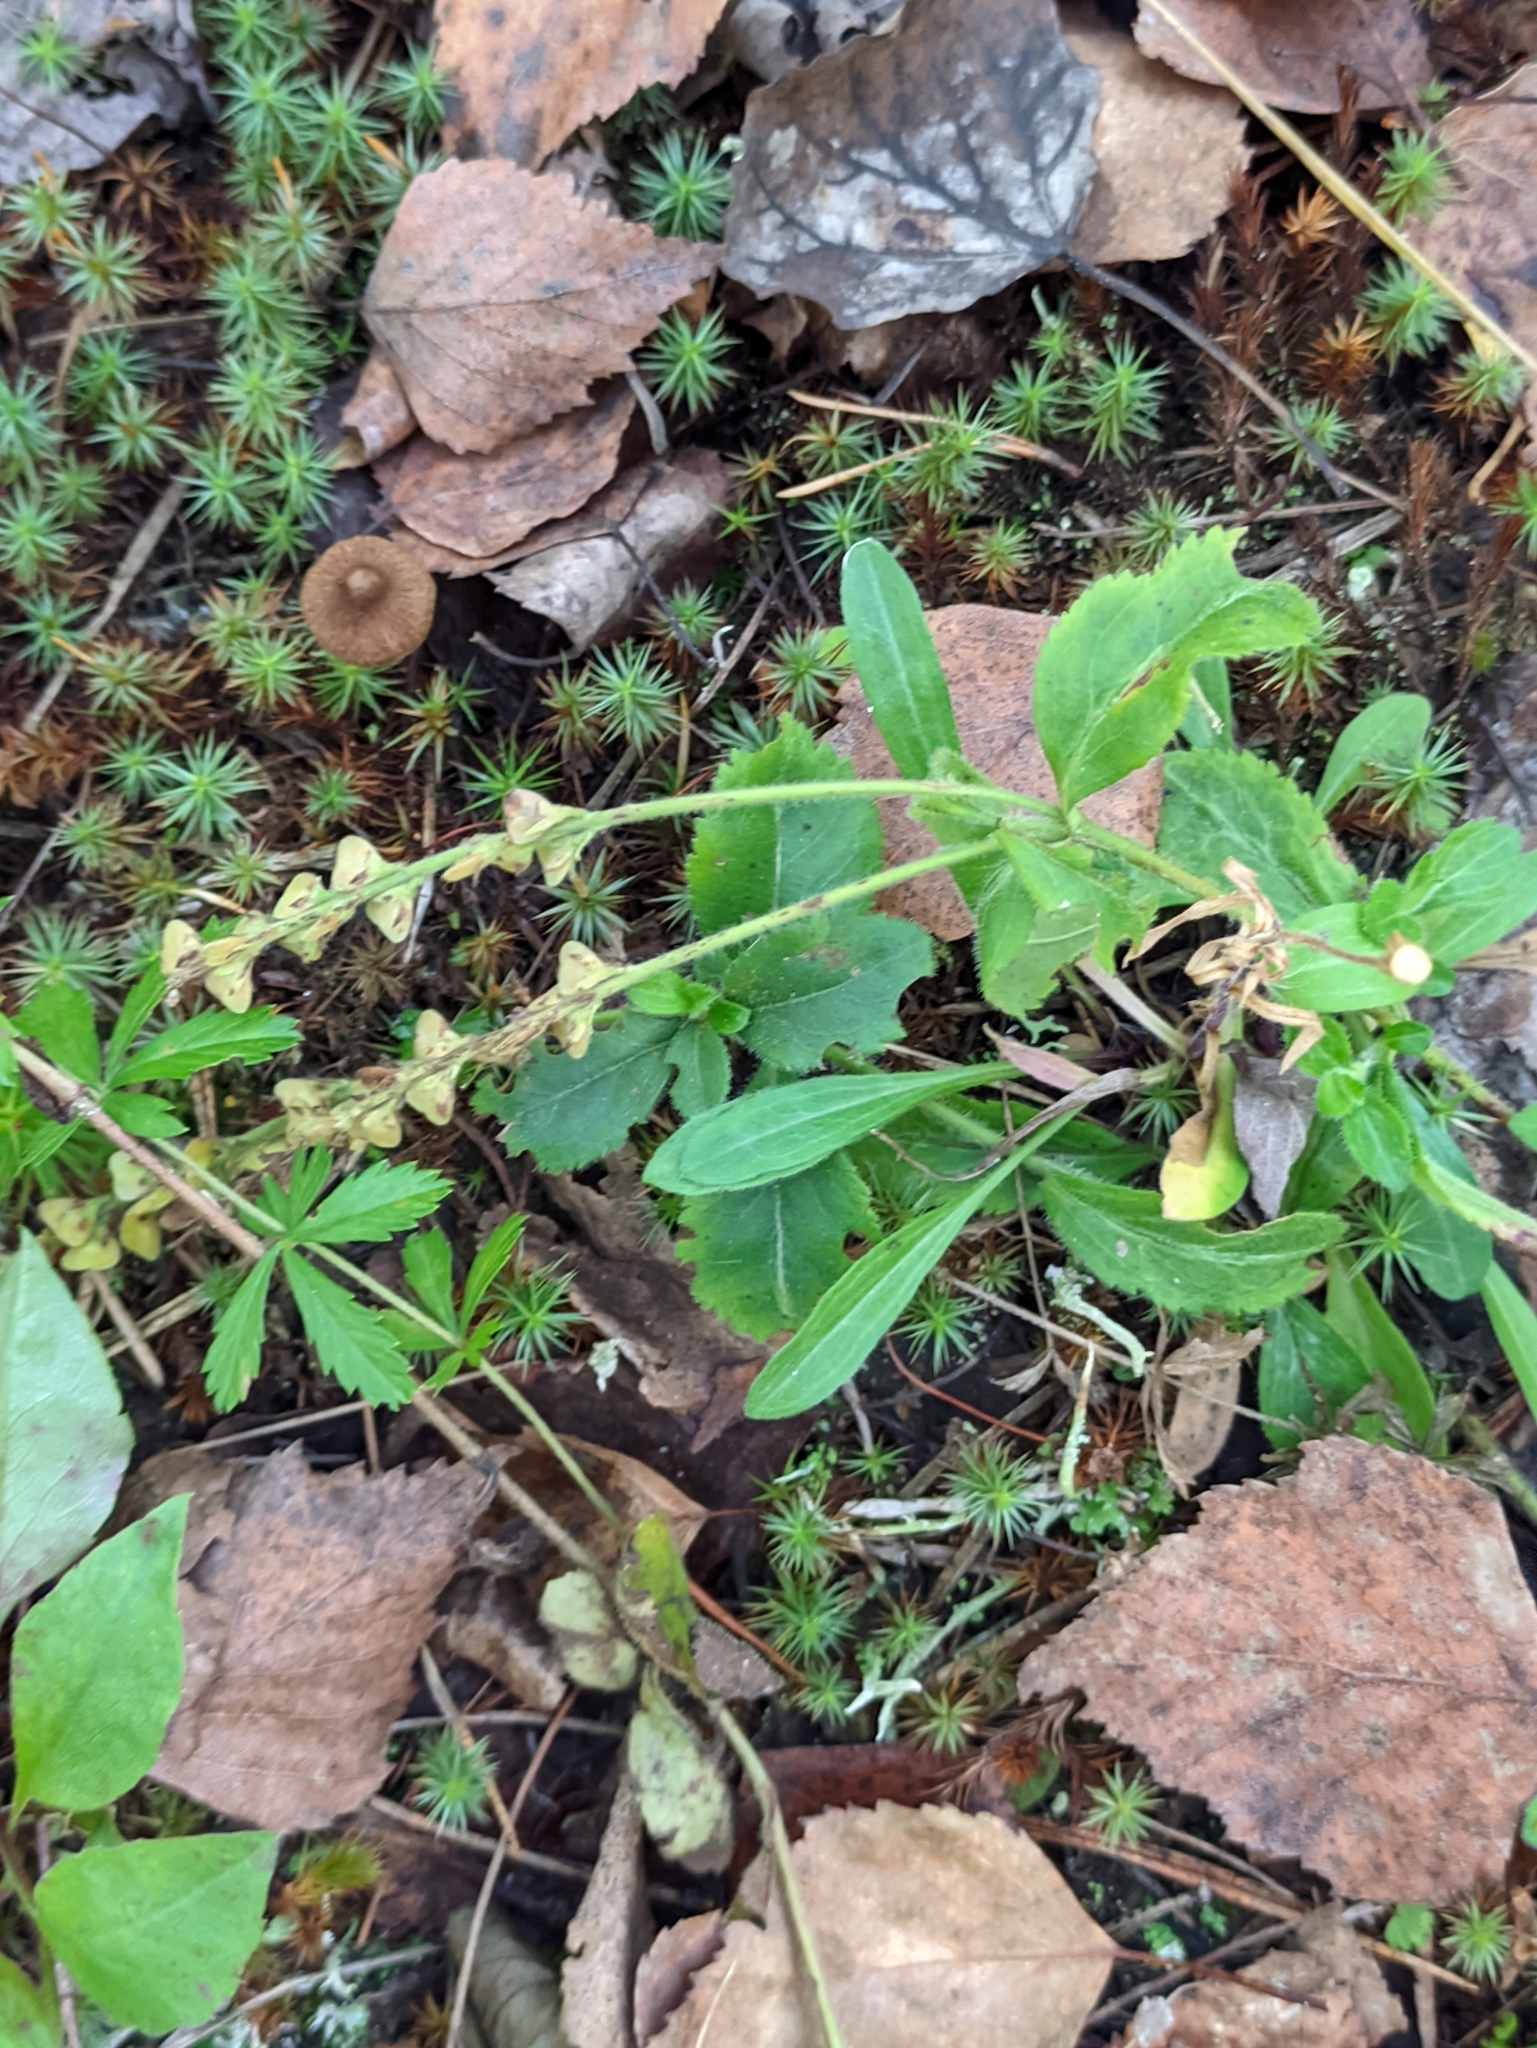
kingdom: Plantae
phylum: Tracheophyta
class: Magnoliopsida
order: Lamiales
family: Plantaginaceae
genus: Veronica
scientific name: Veronica officinalis
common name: Common speedwell
